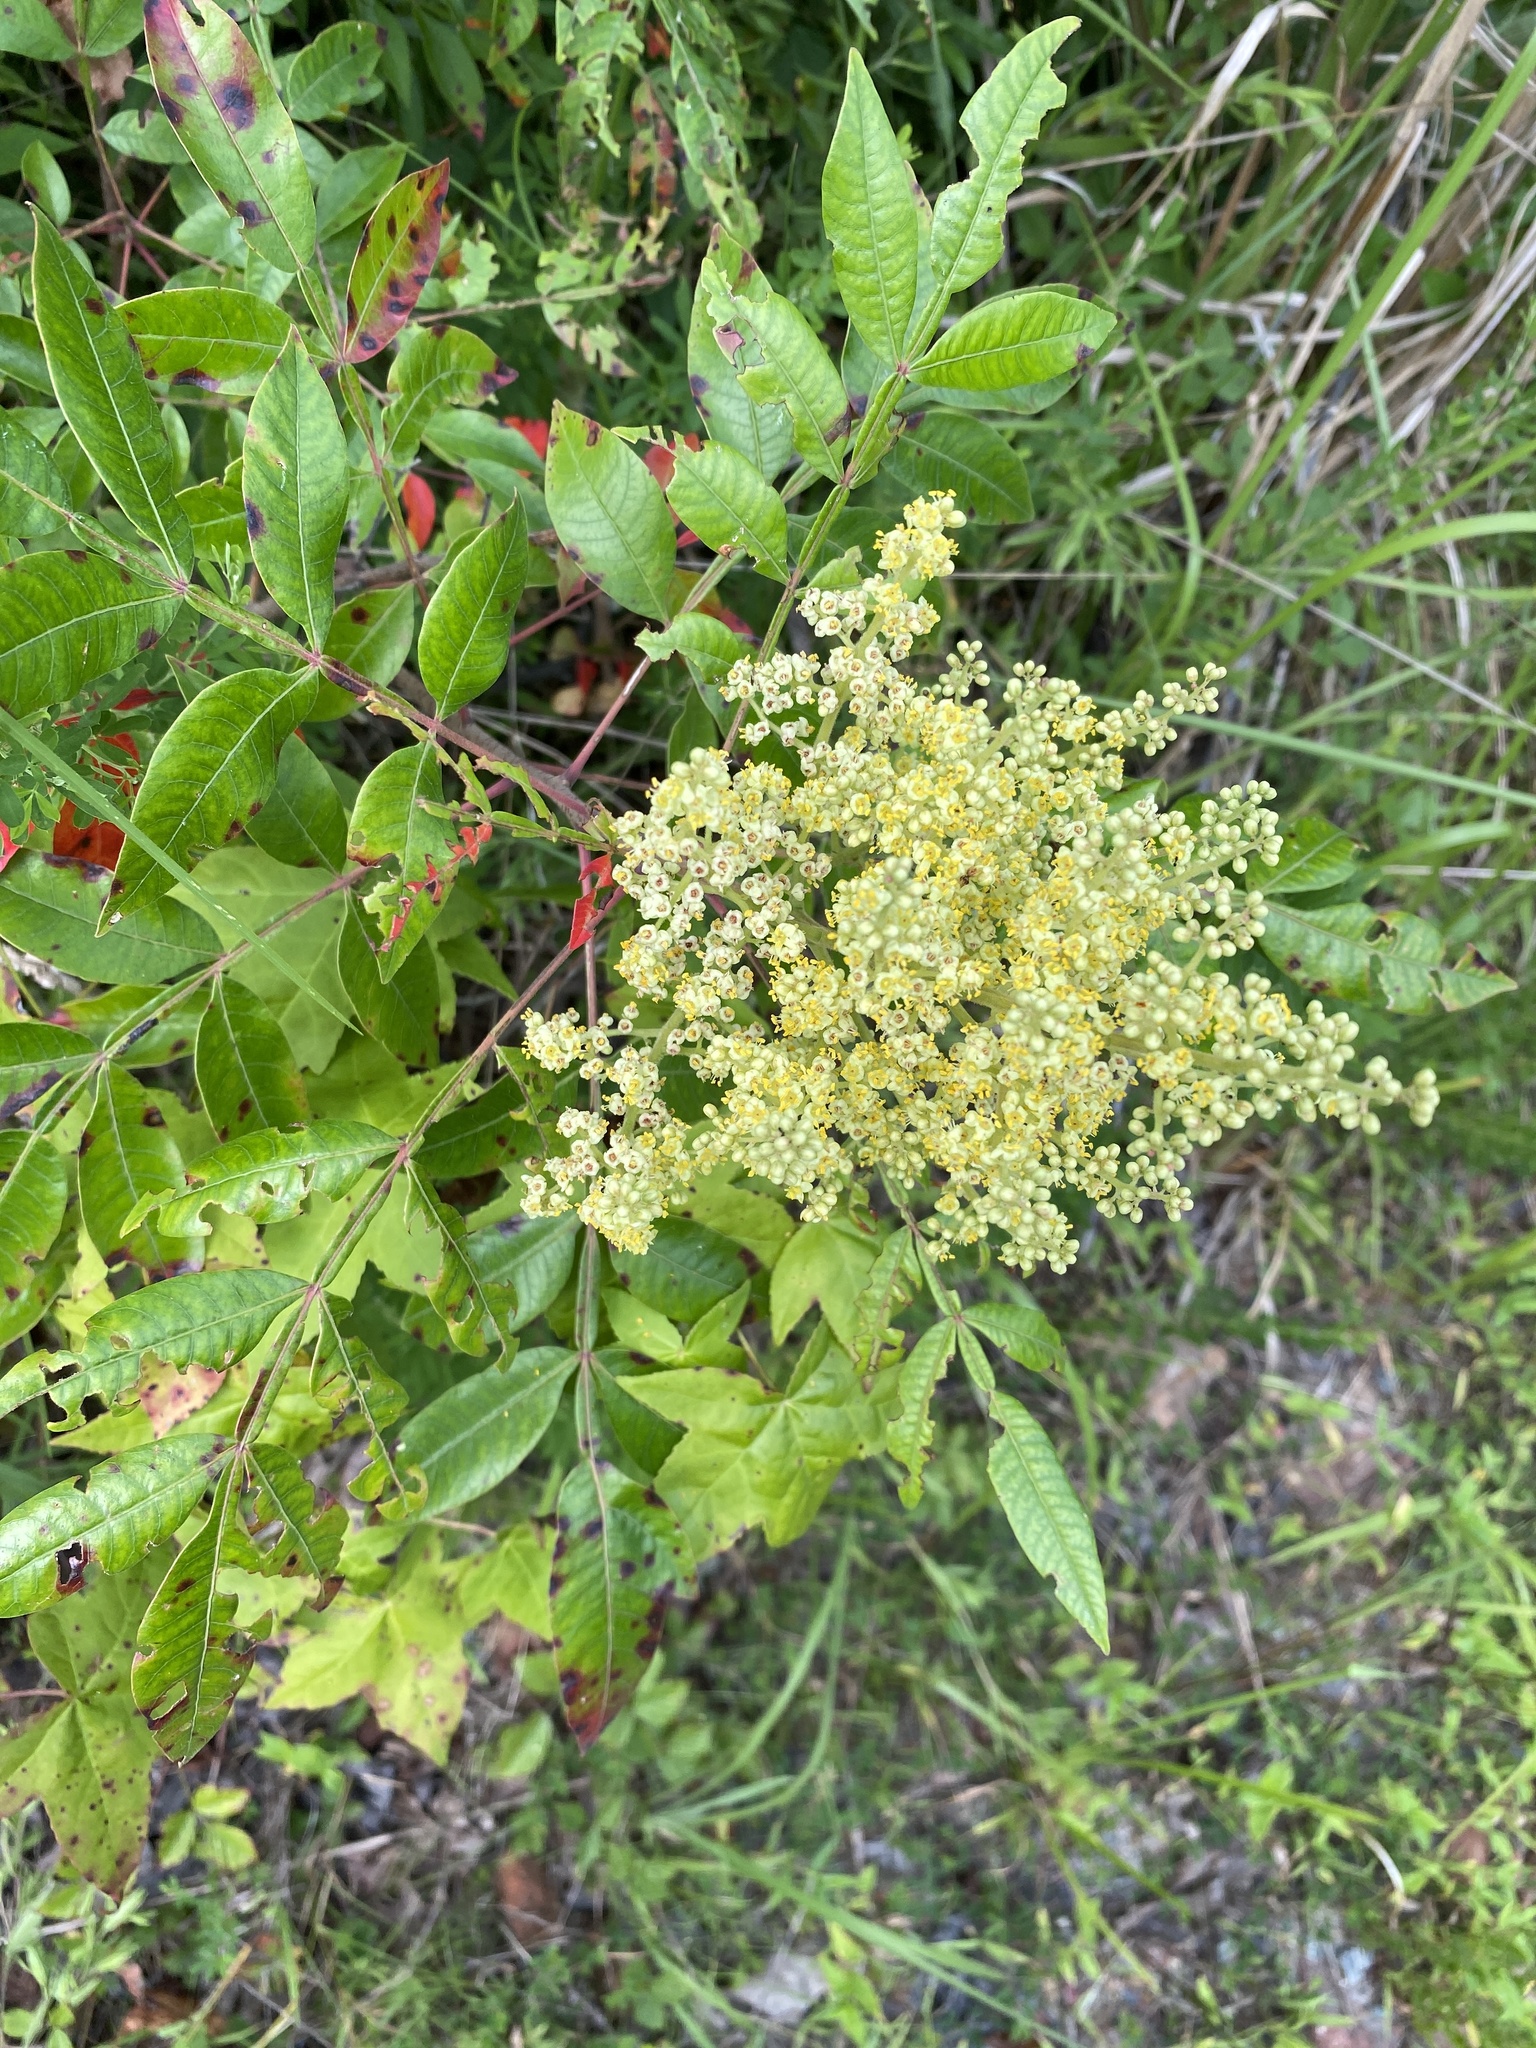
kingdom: Plantae
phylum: Tracheophyta
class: Magnoliopsida
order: Sapindales
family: Anacardiaceae
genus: Rhus
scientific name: Rhus copallina
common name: Shining sumac
